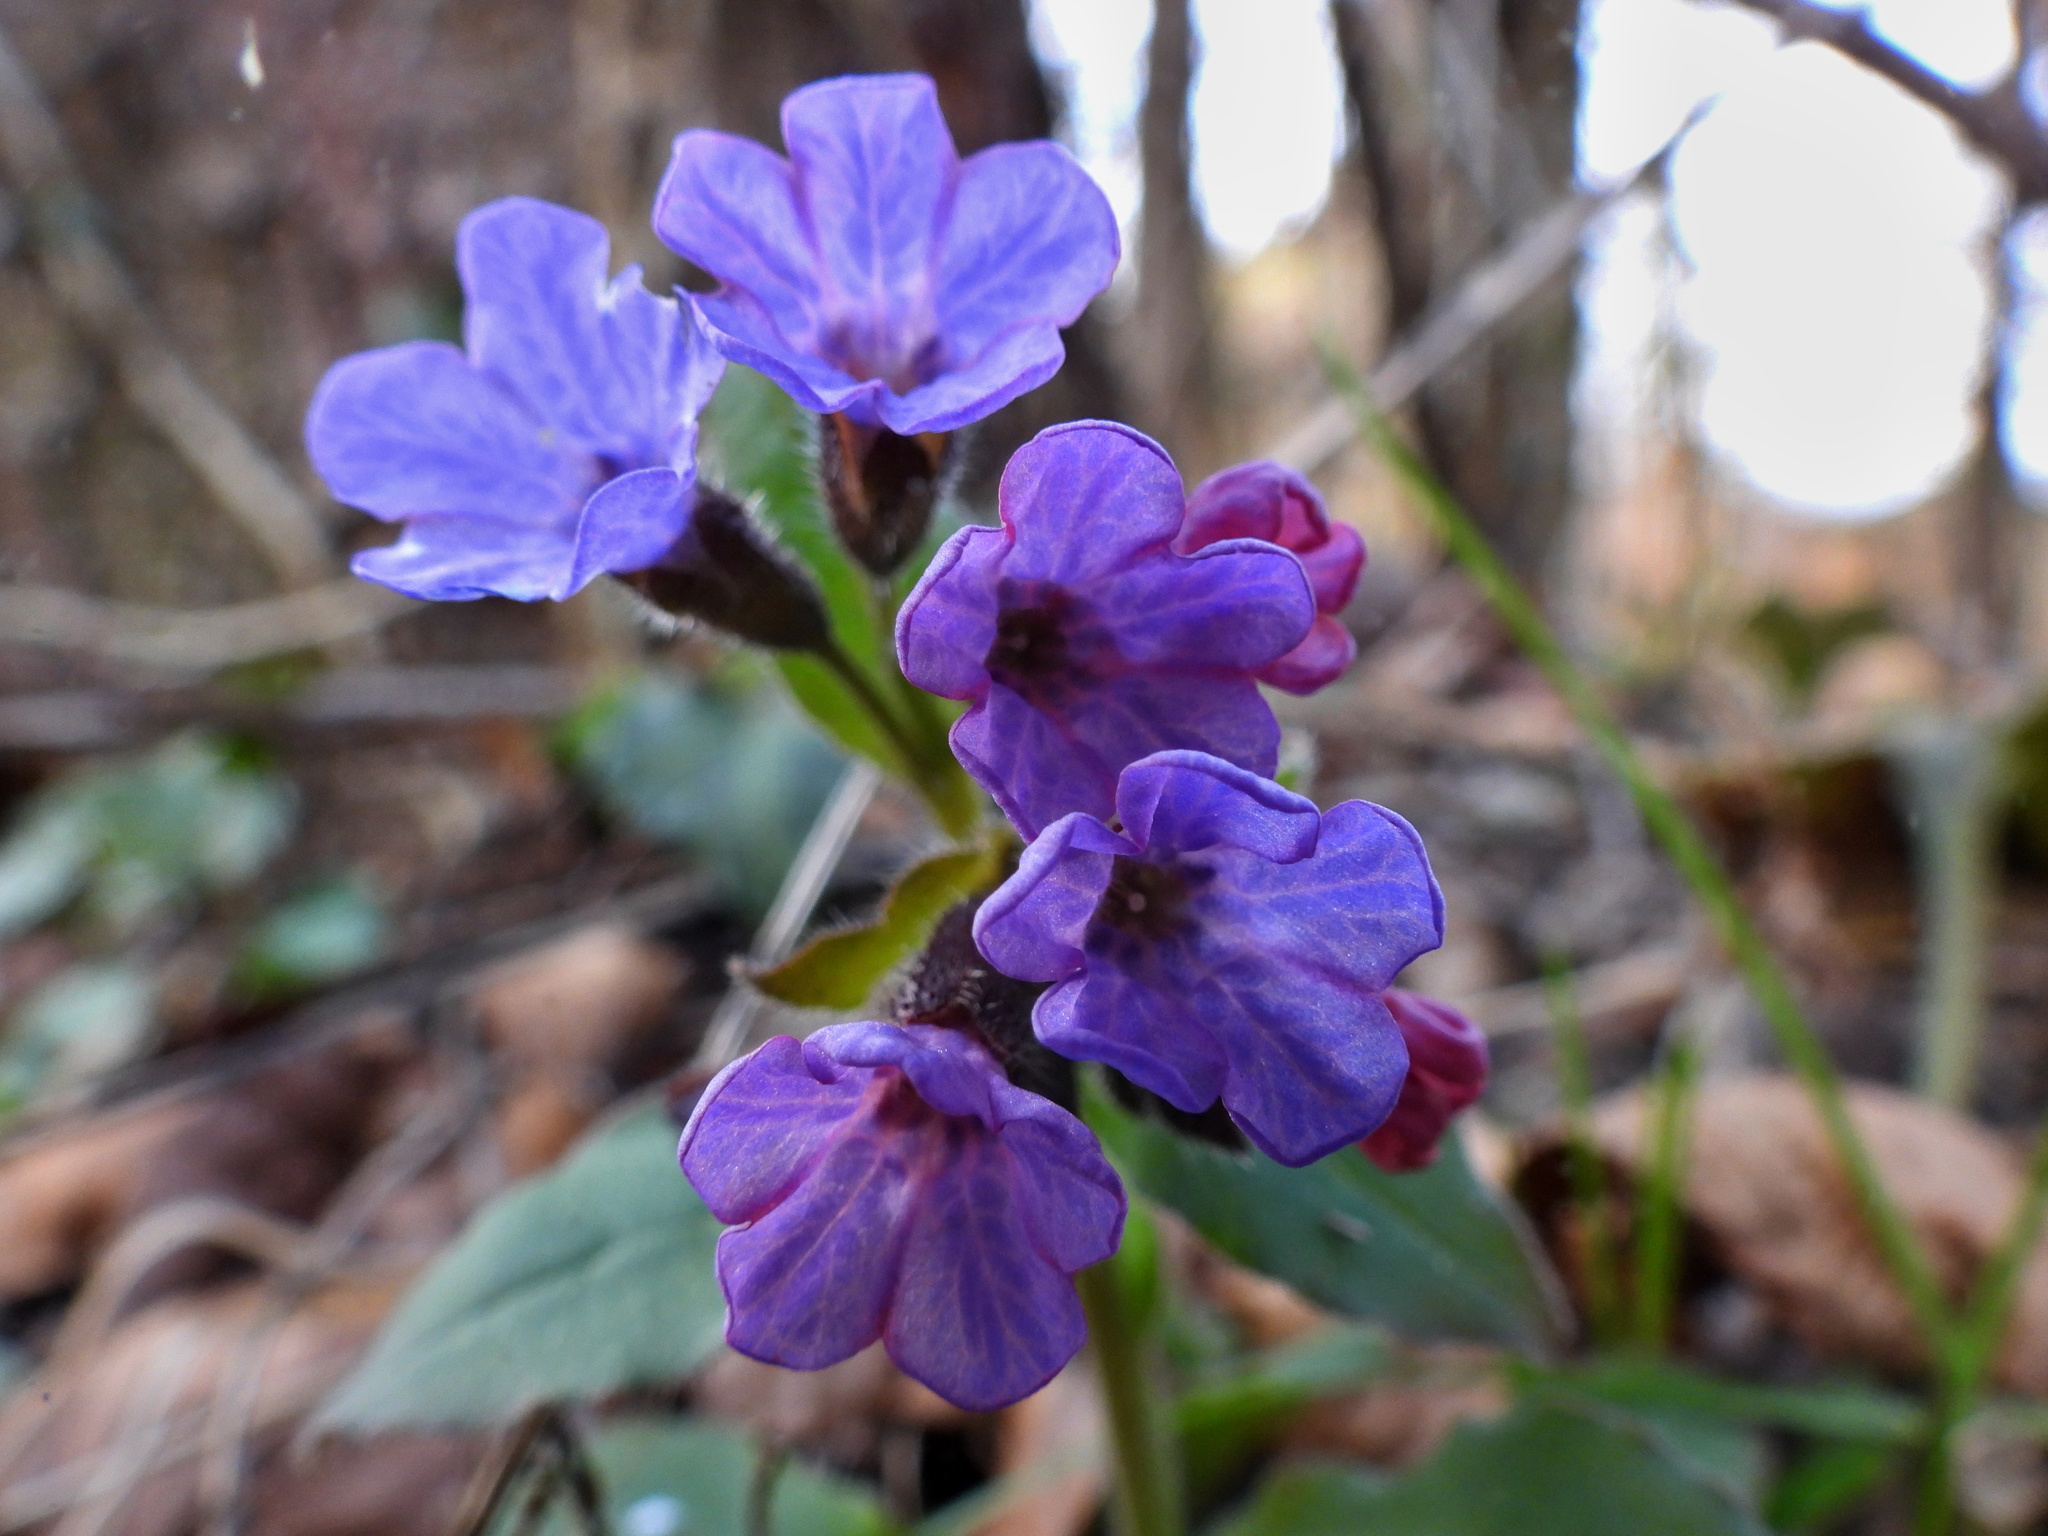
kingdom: Plantae
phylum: Tracheophyta
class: Magnoliopsida
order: Boraginales
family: Boraginaceae
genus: Pulmonaria
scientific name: Pulmonaria obscura
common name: Suffolk lungwort
